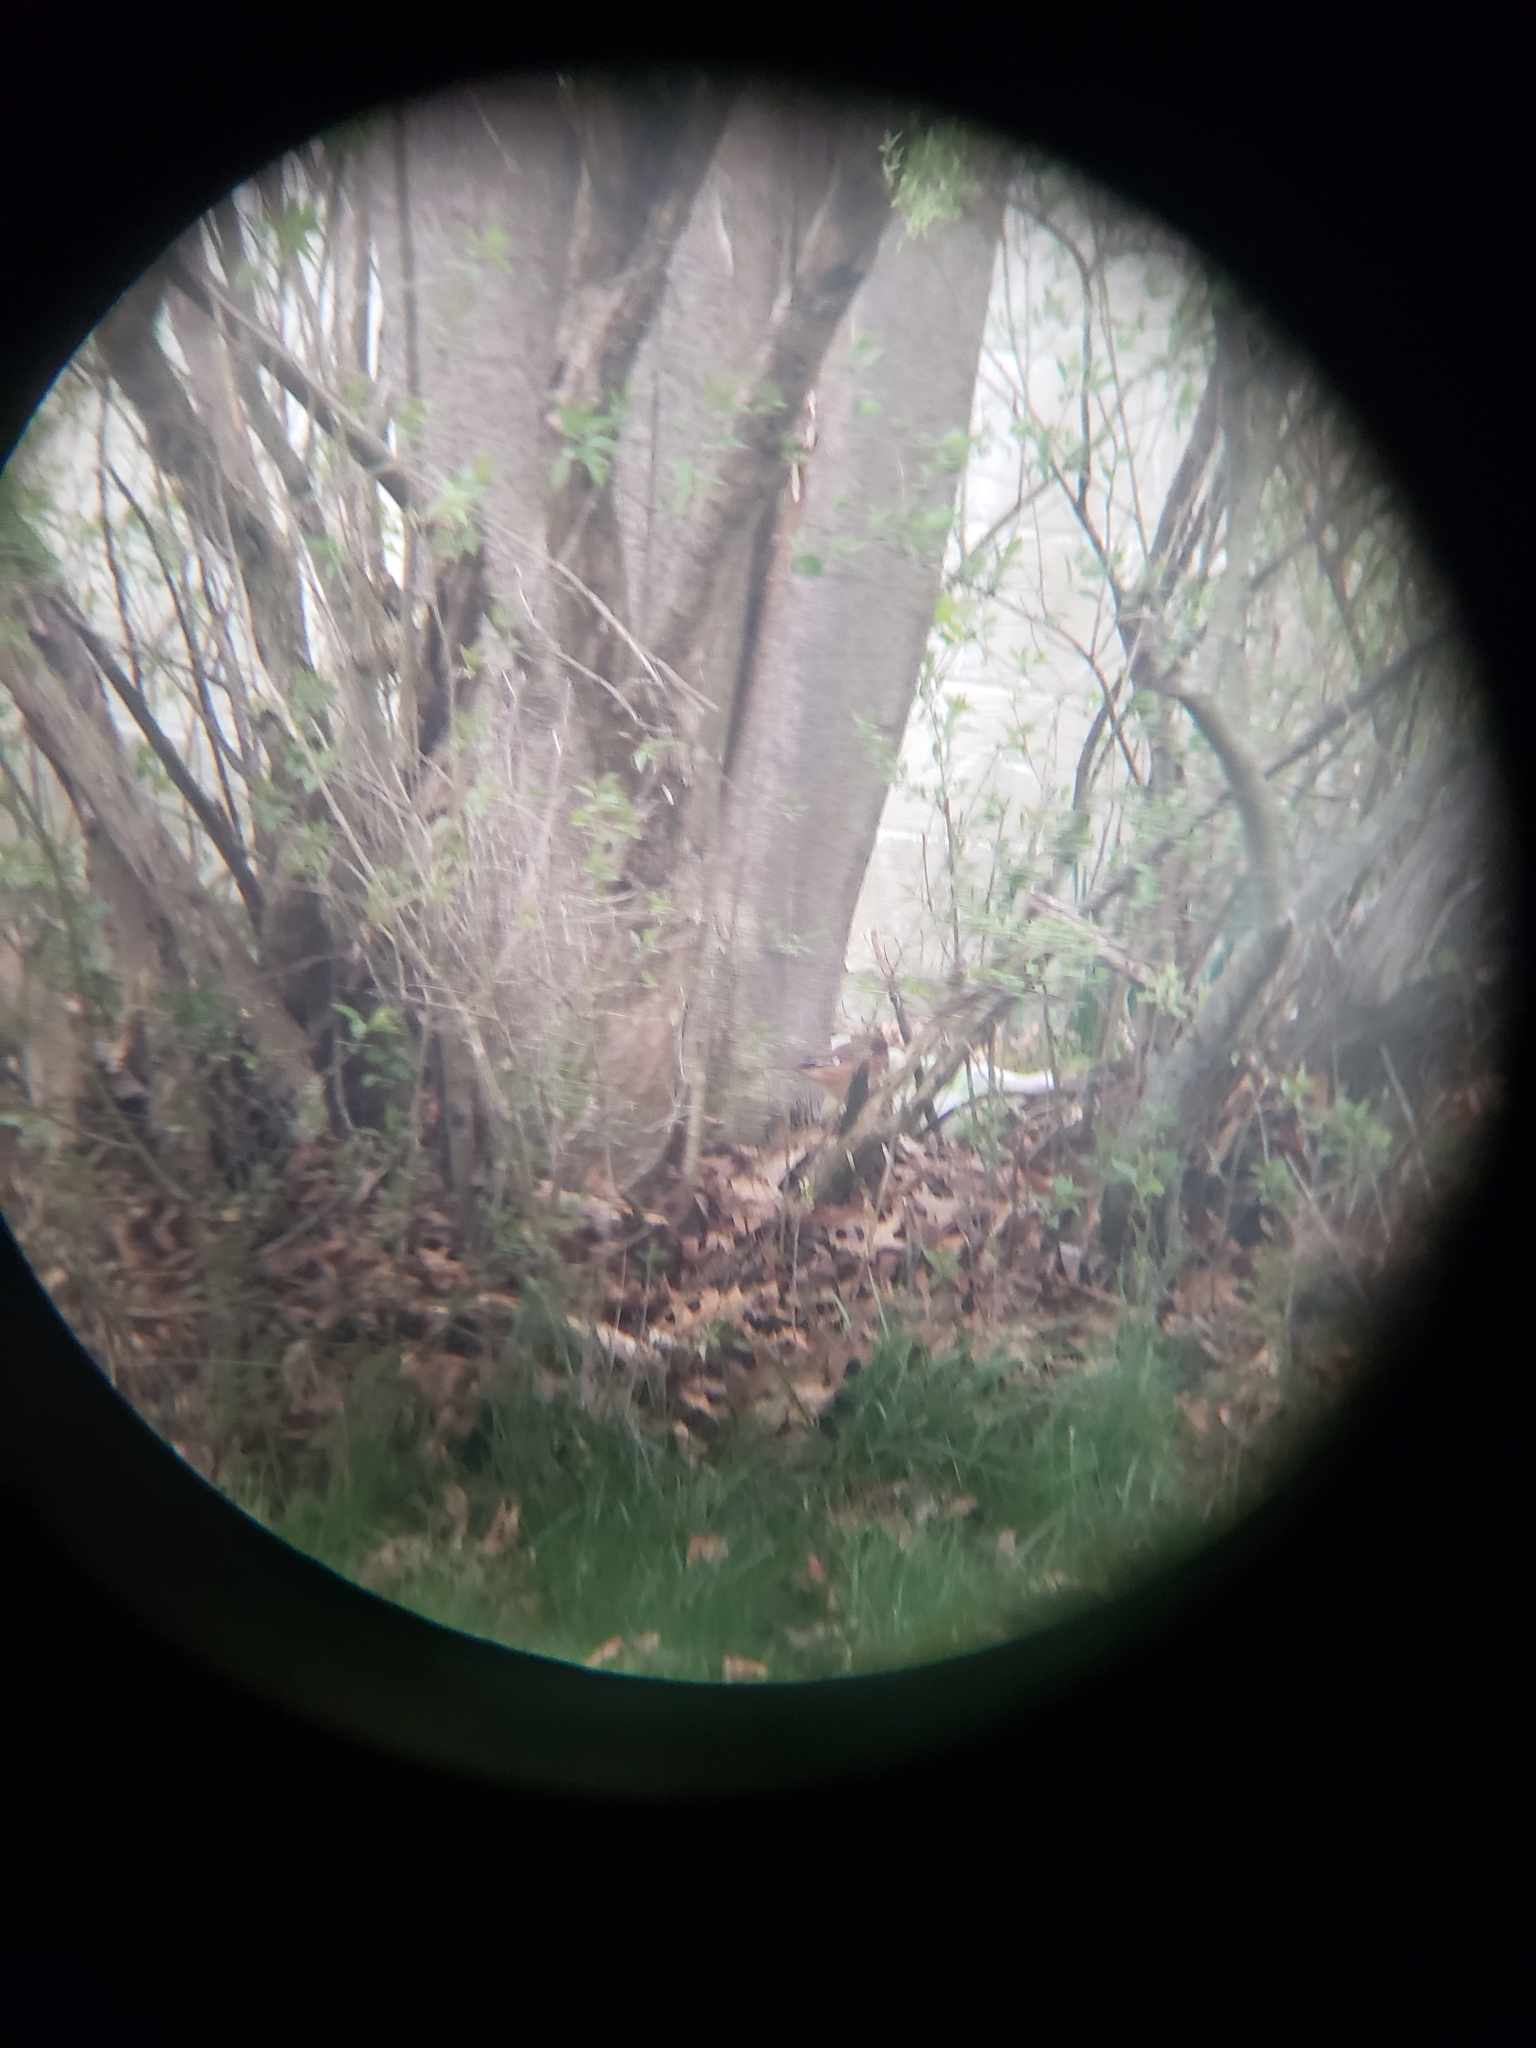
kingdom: Animalia
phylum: Chordata
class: Aves
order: Passeriformes
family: Passerellidae
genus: Pipilo
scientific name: Pipilo erythrophthalmus
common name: Eastern towhee
